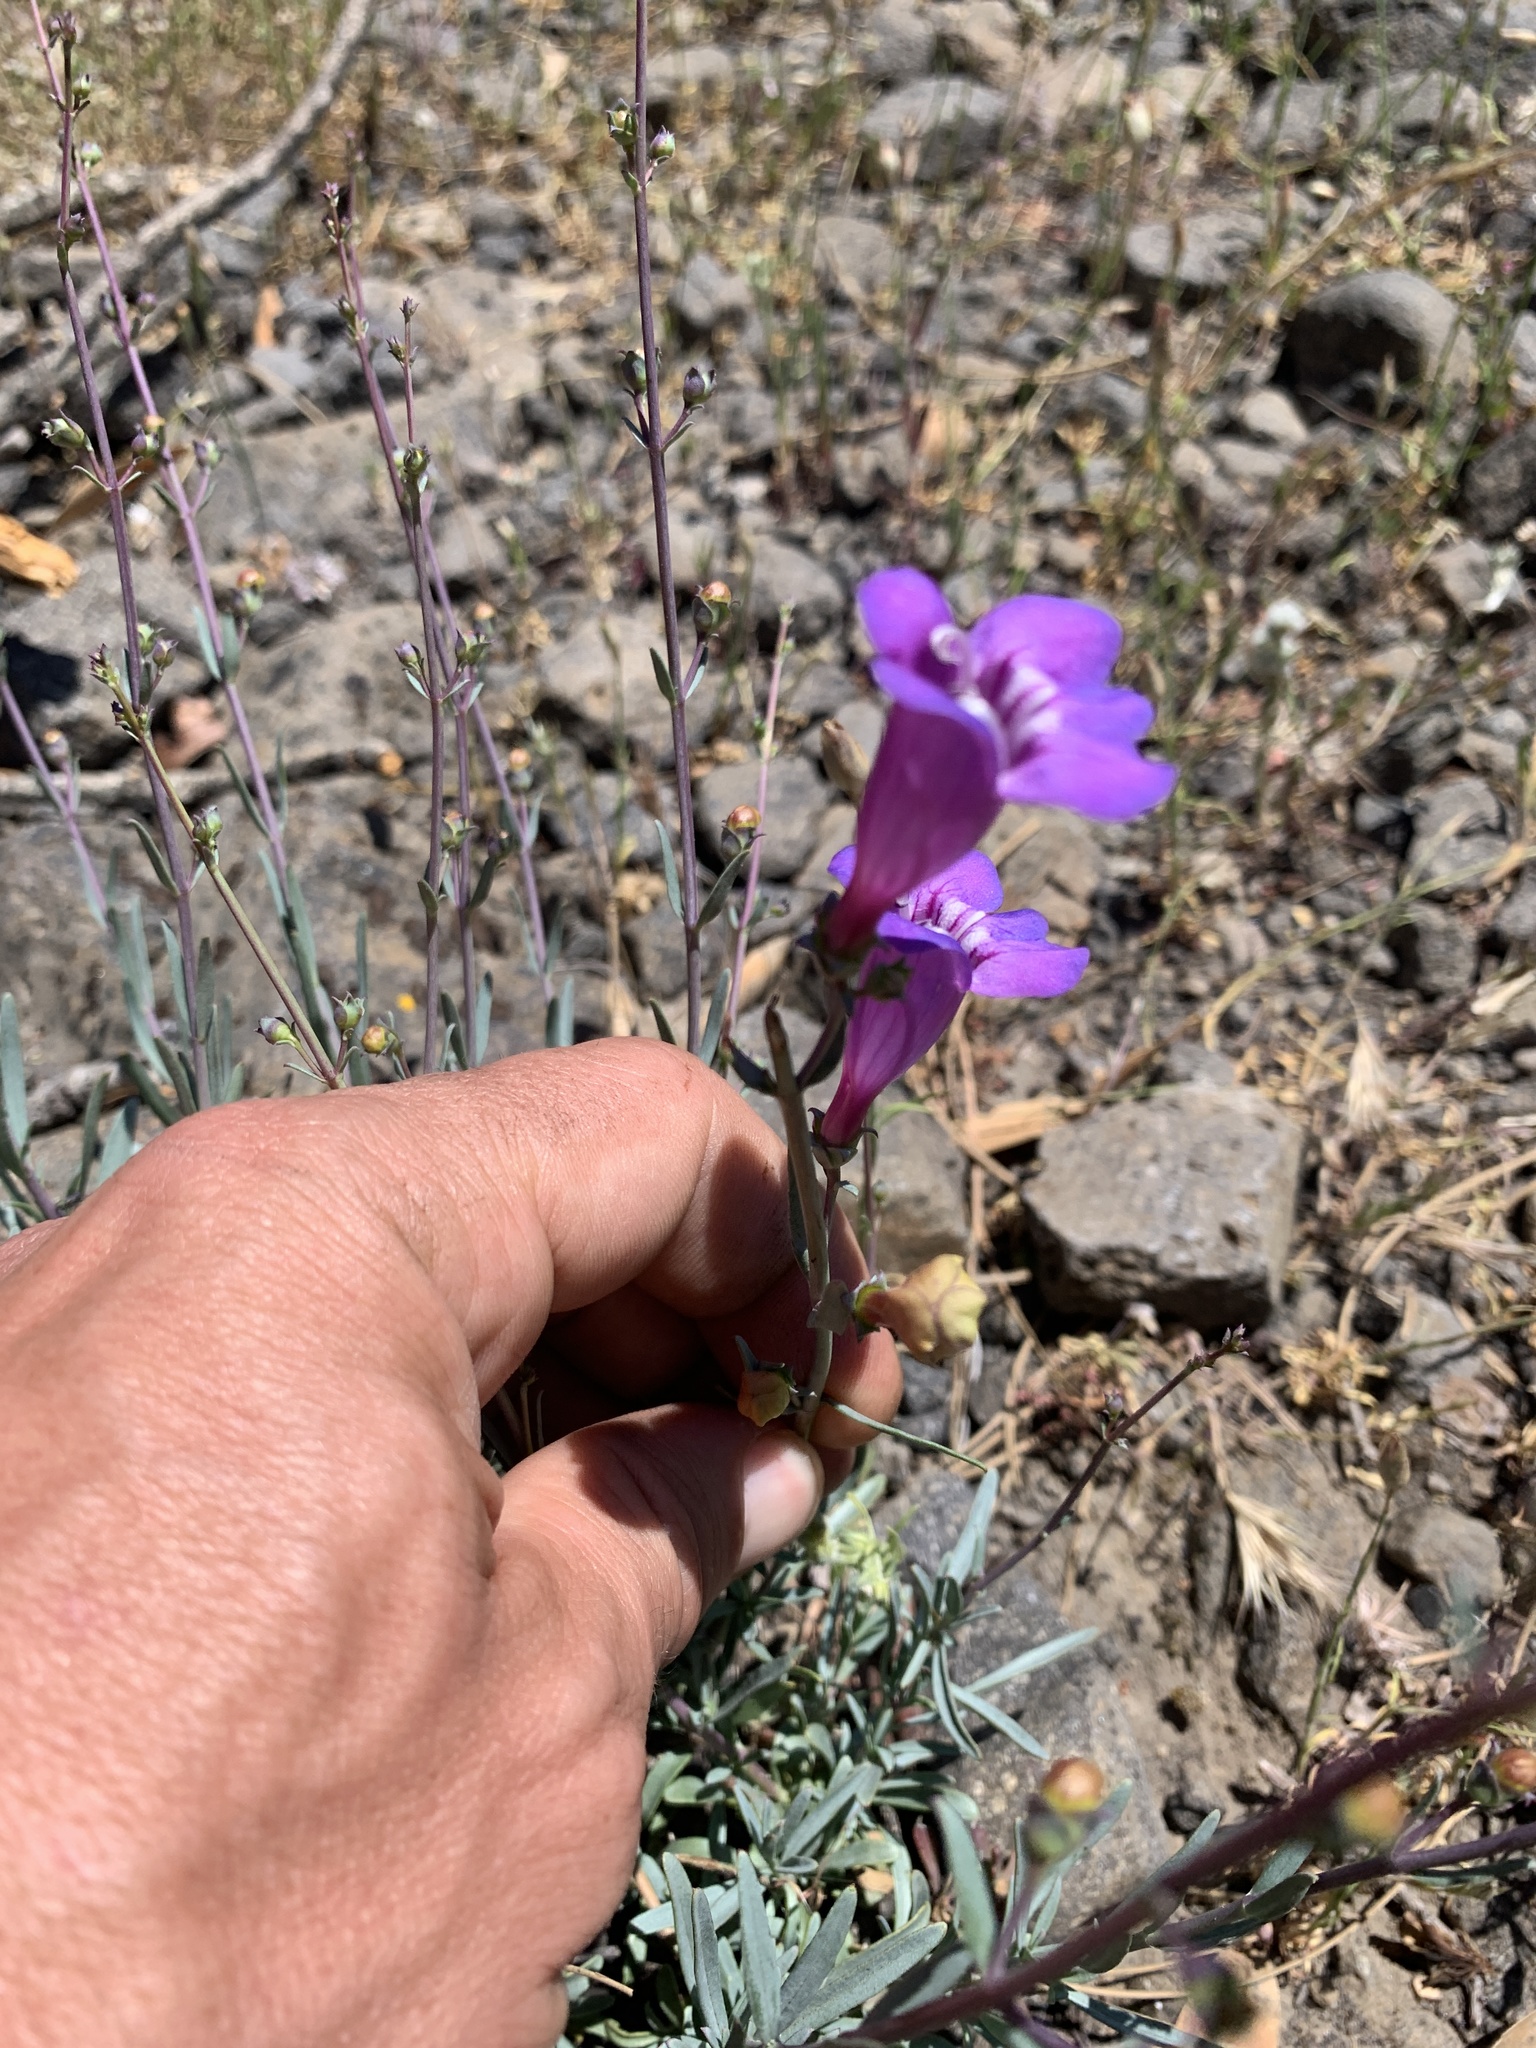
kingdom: Plantae
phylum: Tracheophyta
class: Magnoliopsida
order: Lamiales
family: Plantaginaceae
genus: Penstemon
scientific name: Penstemon heterophyllus
